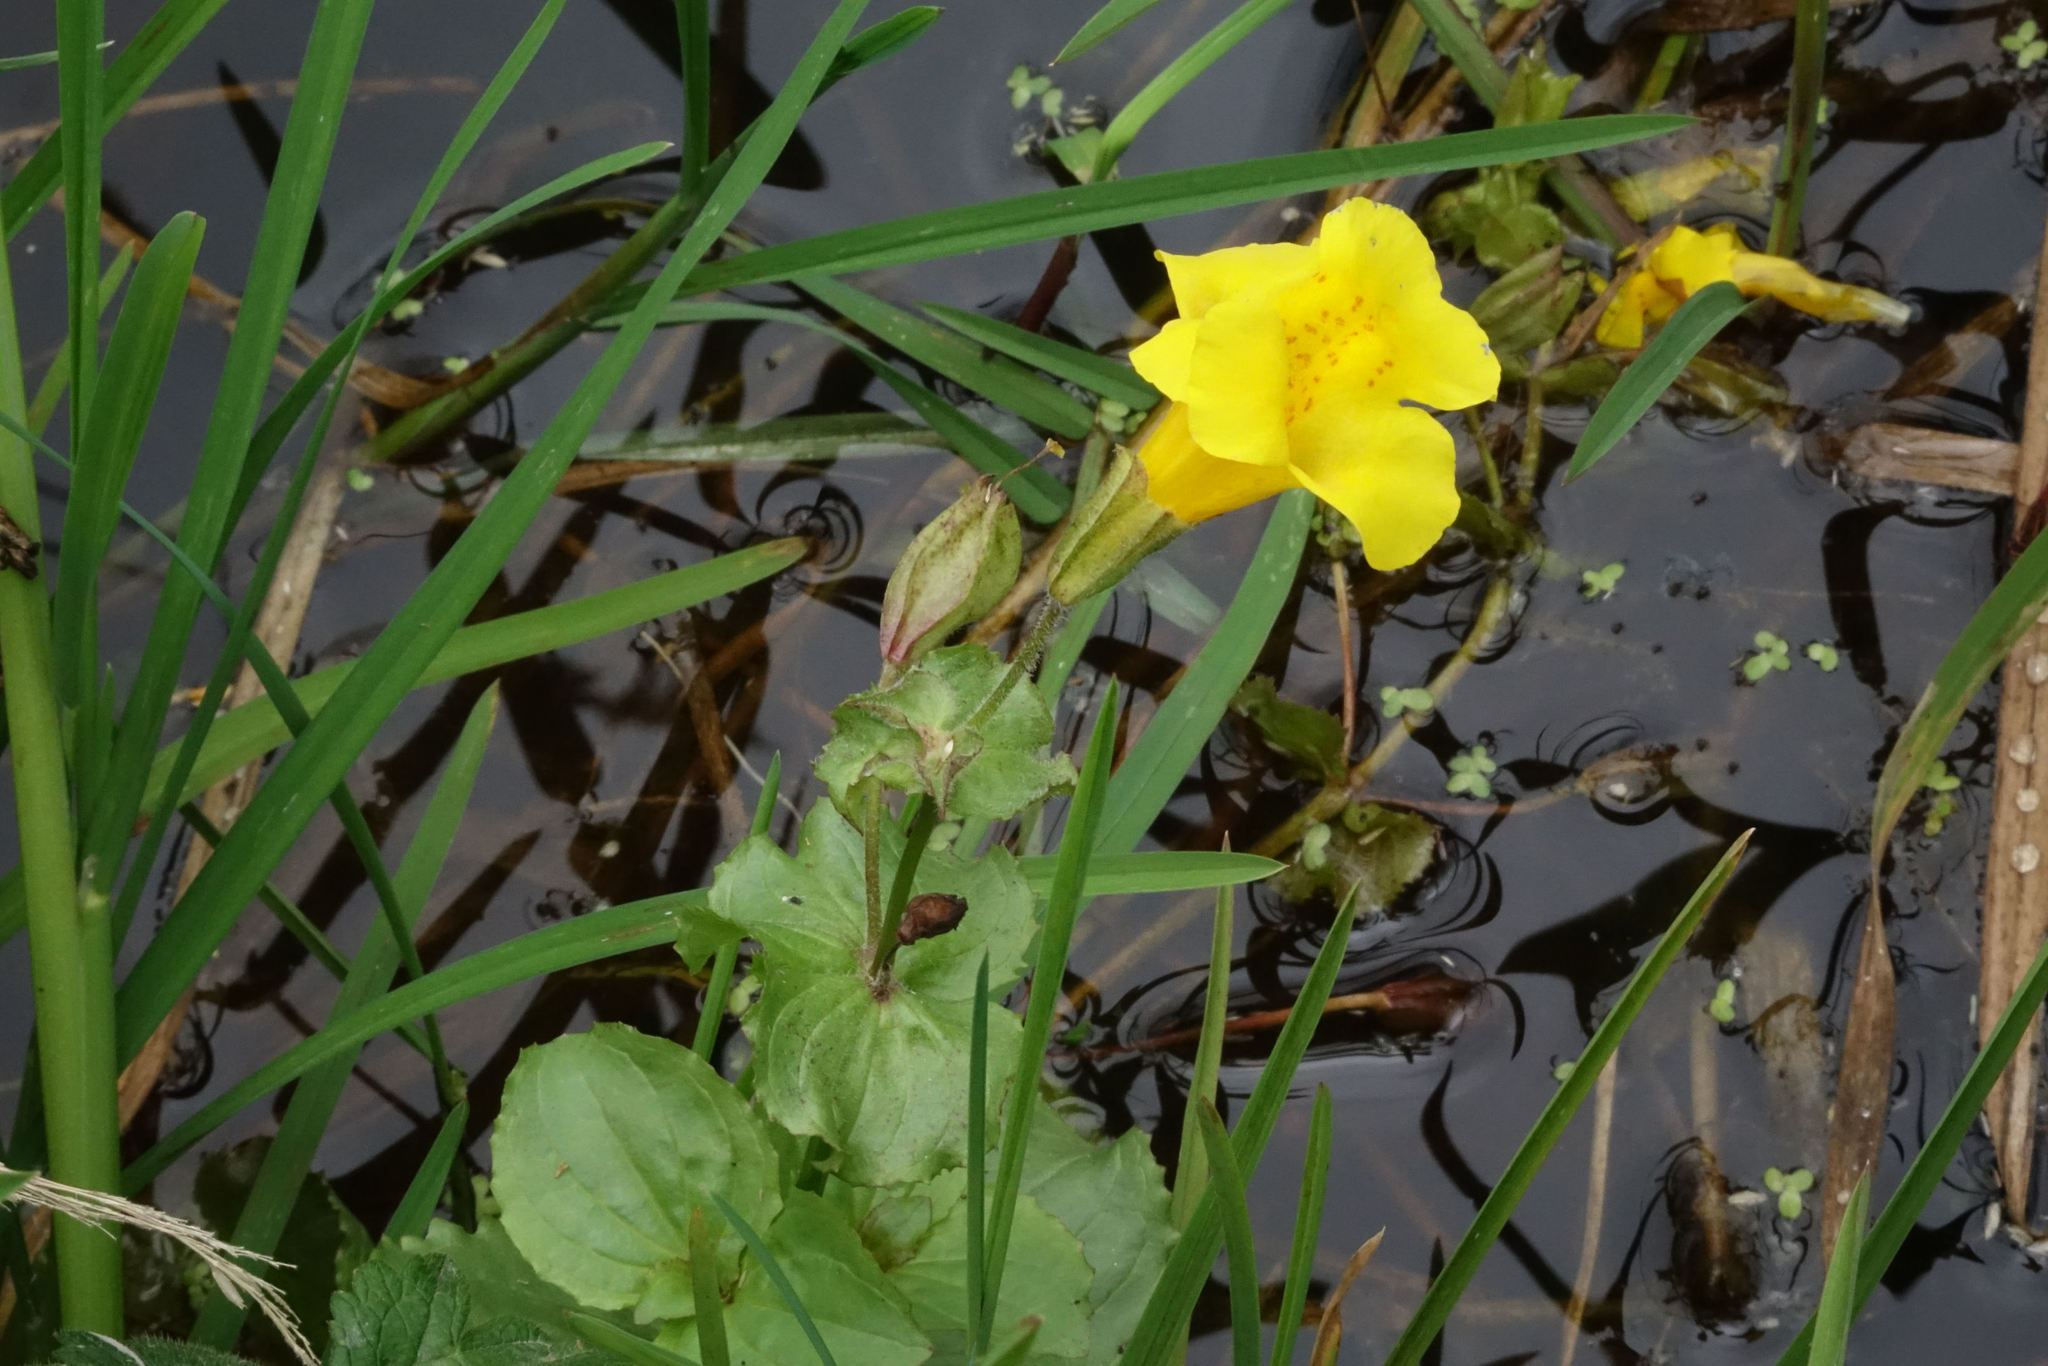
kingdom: Plantae
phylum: Tracheophyta
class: Magnoliopsida
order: Lamiales
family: Phrymaceae
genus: Erythranthe
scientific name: Erythranthe guttata
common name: Monkeyflower
